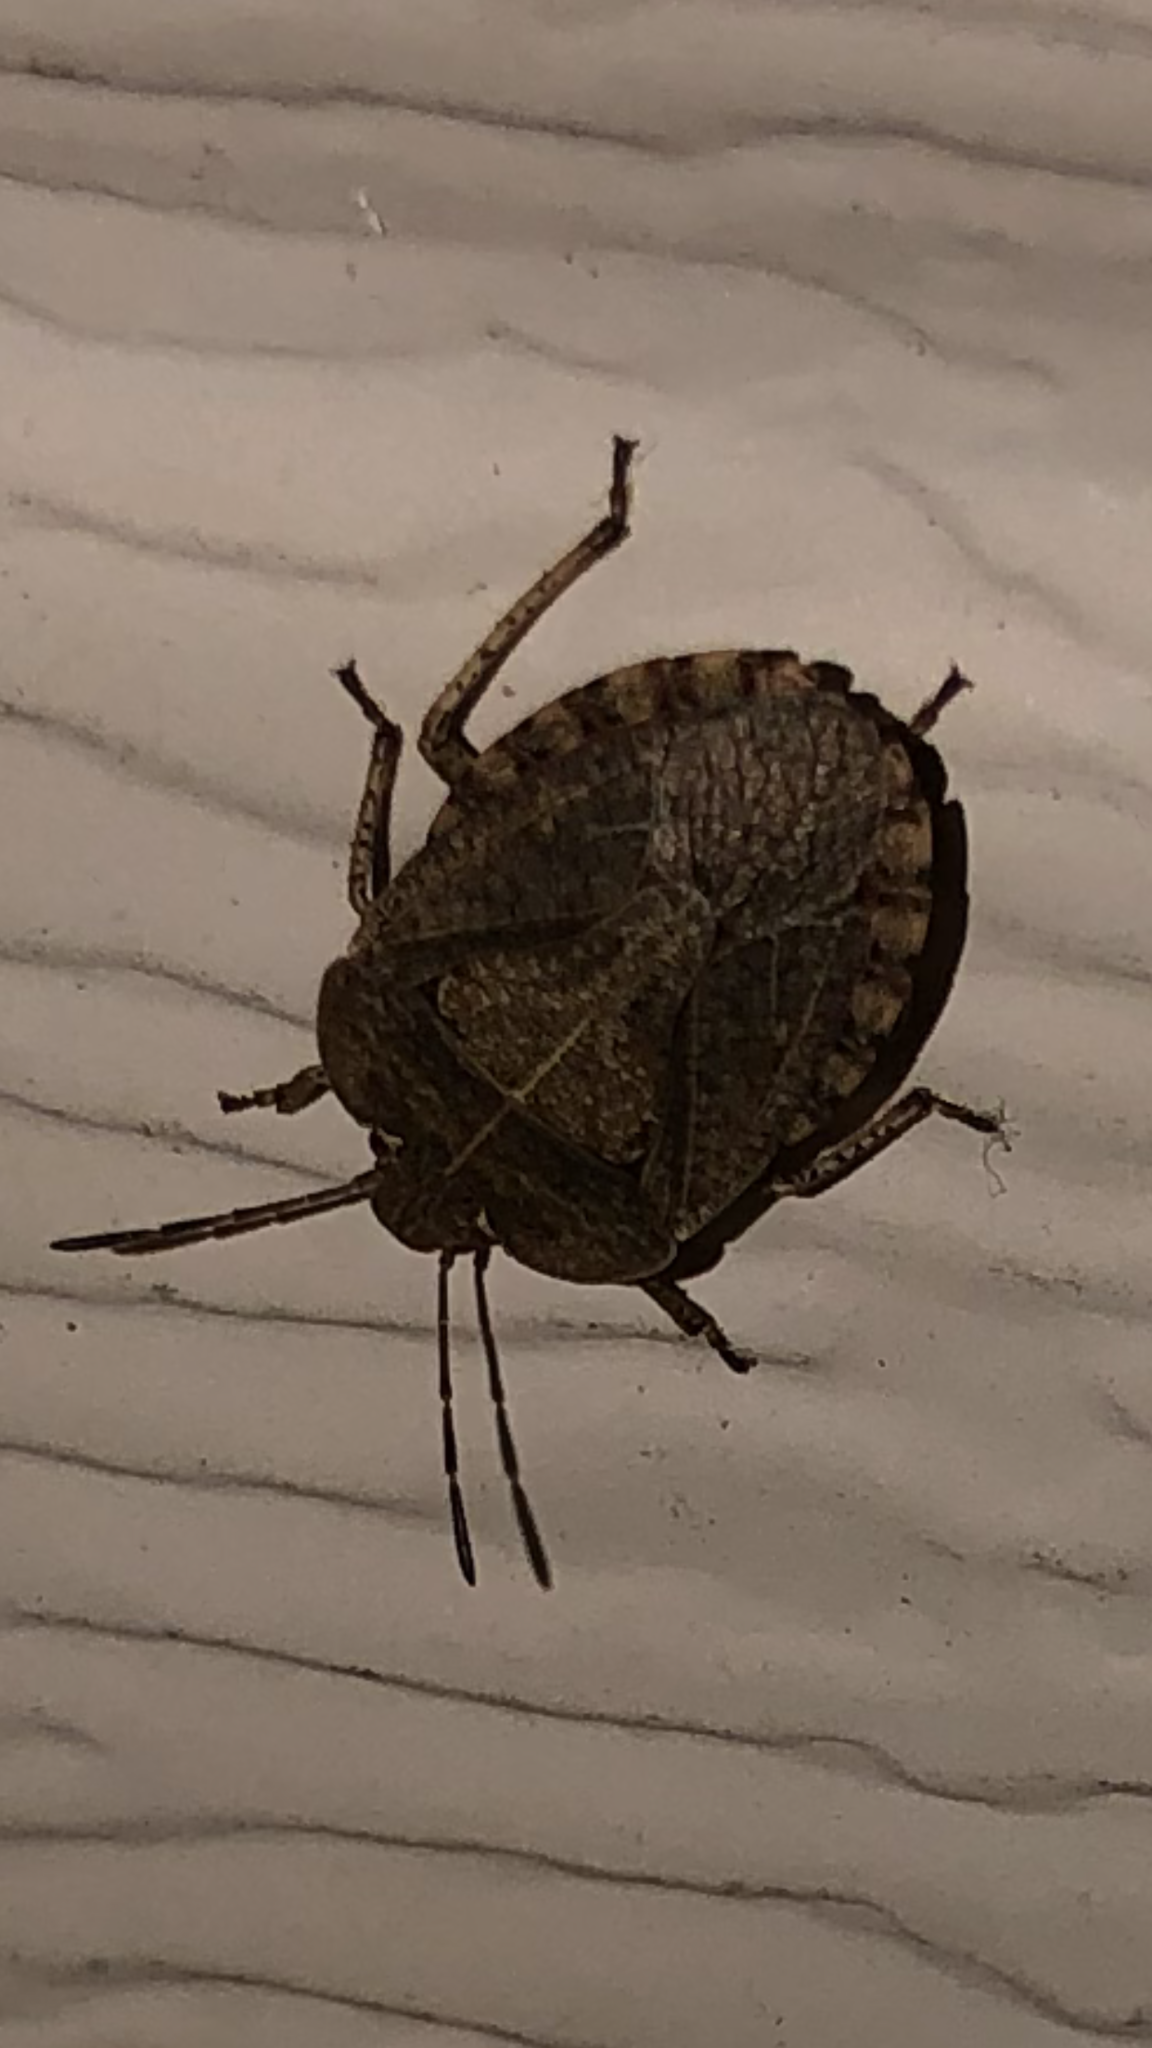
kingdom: Animalia
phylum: Arthropoda
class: Insecta
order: Hemiptera
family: Pentatomidae
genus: Menecles
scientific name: Menecles insertus
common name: Elf shoe stink bug
